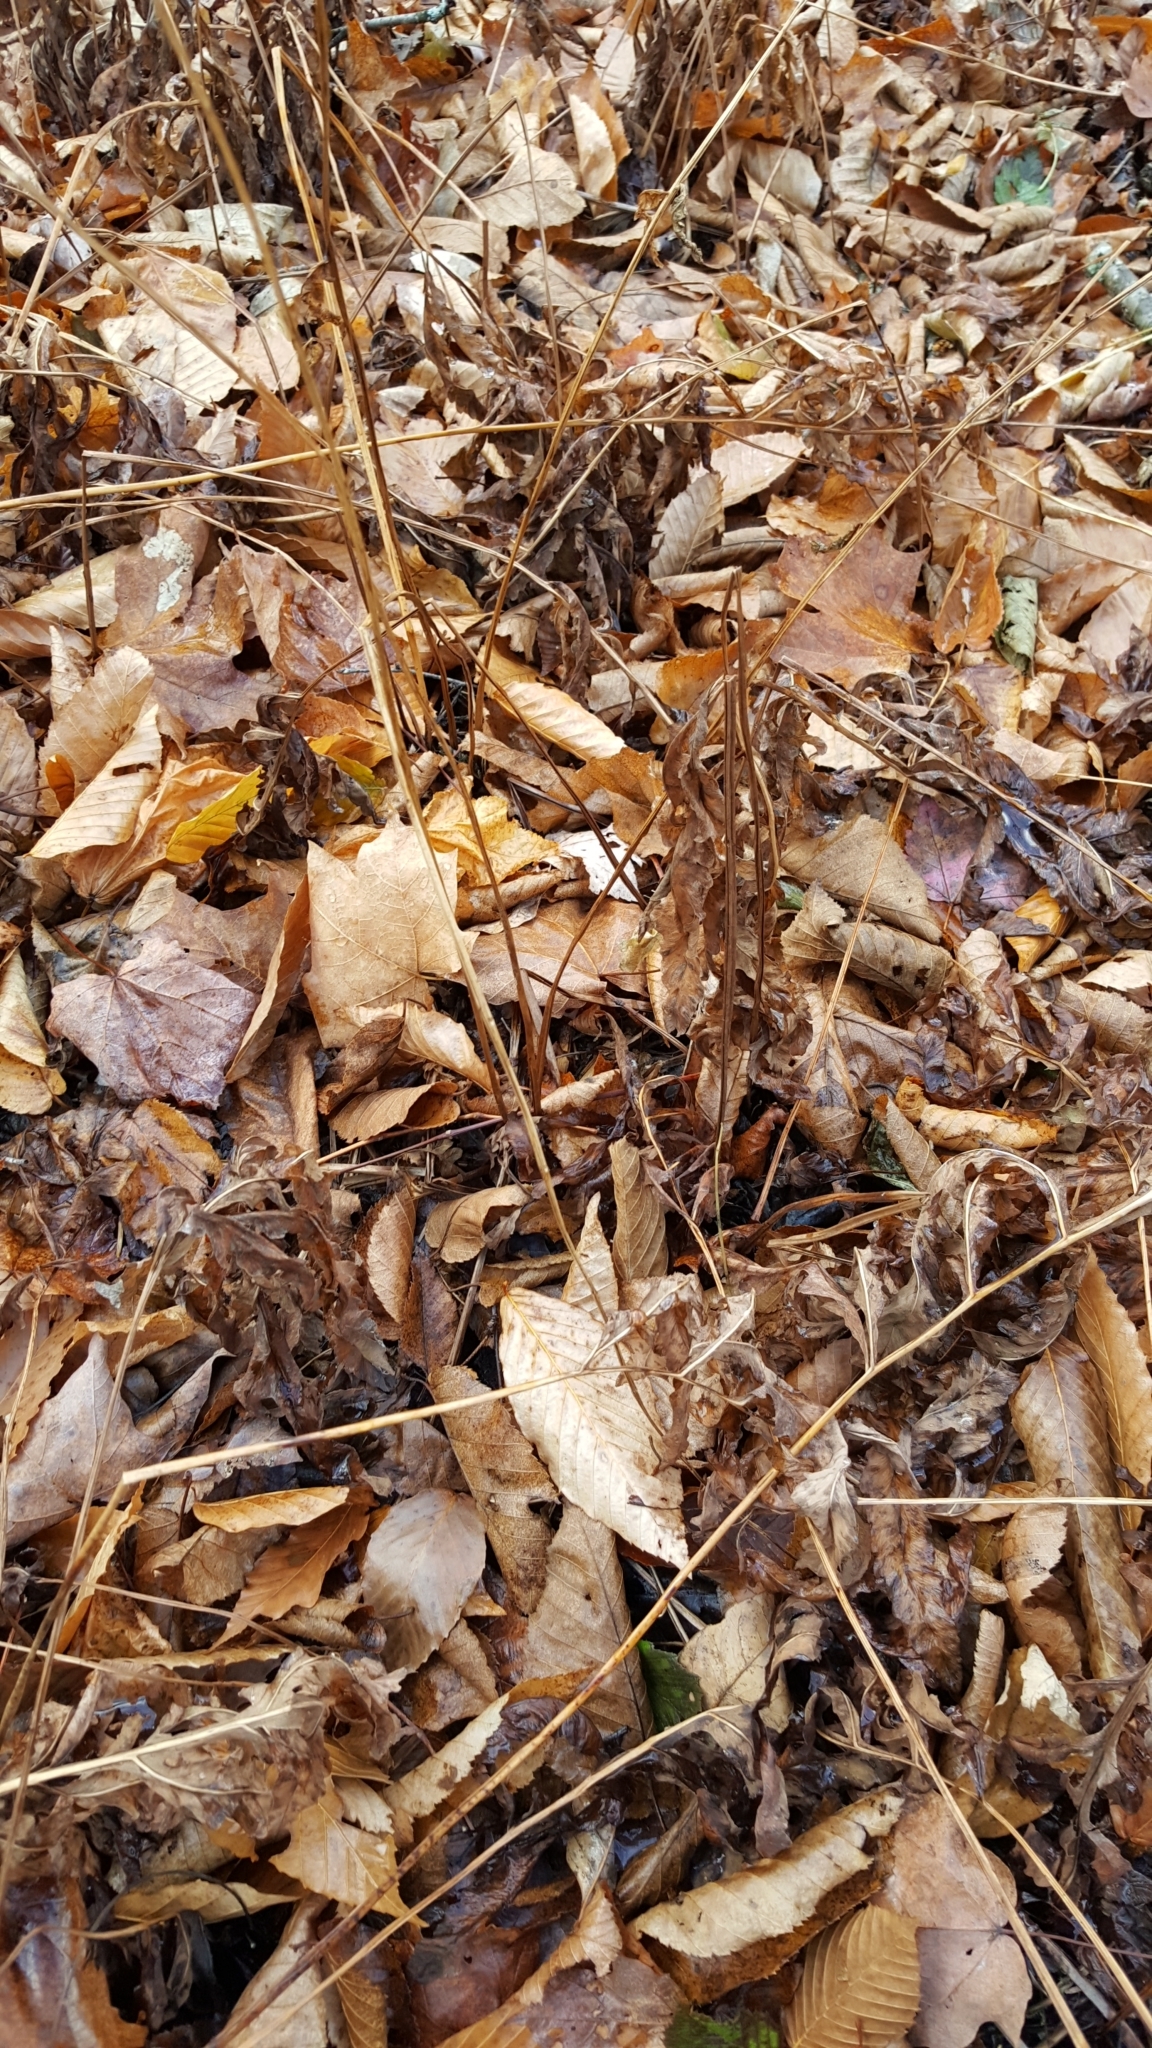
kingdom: Plantae
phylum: Tracheophyta
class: Polypodiopsida
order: Polypodiales
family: Onocleaceae
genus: Onoclea
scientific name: Onoclea sensibilis
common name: Sensitive fern
